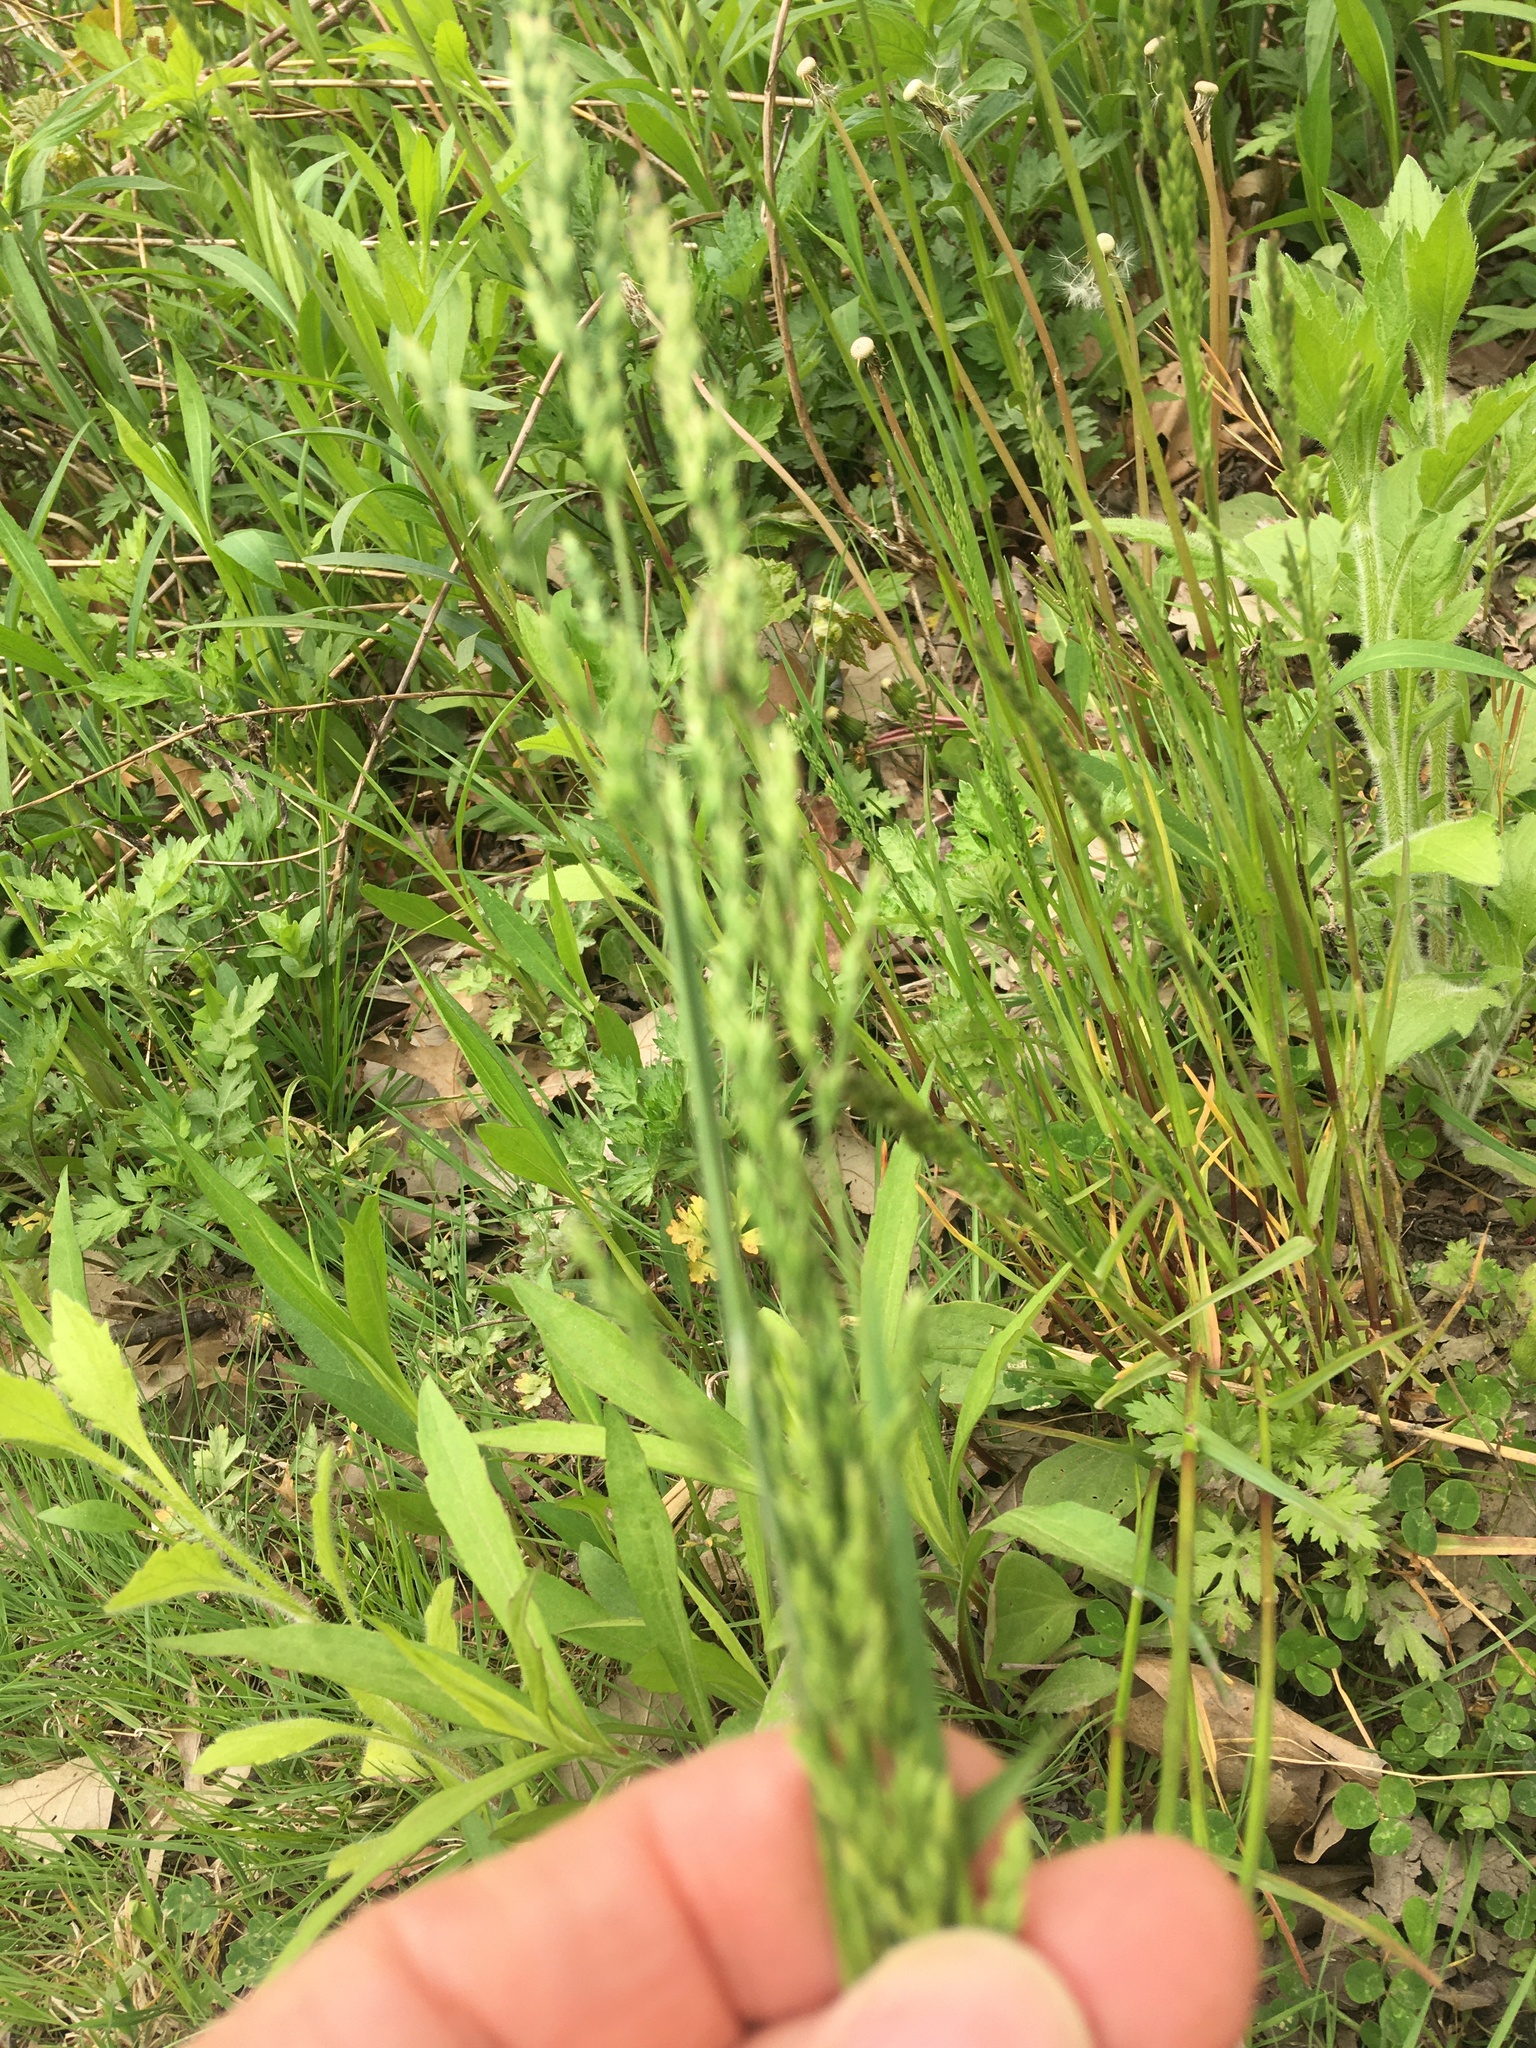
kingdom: Plantae
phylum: Tracheophyta
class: Liliopsida
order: Poales
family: Poaceae
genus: Poa
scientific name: Poa pratensis
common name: Kentucky bluegrass
